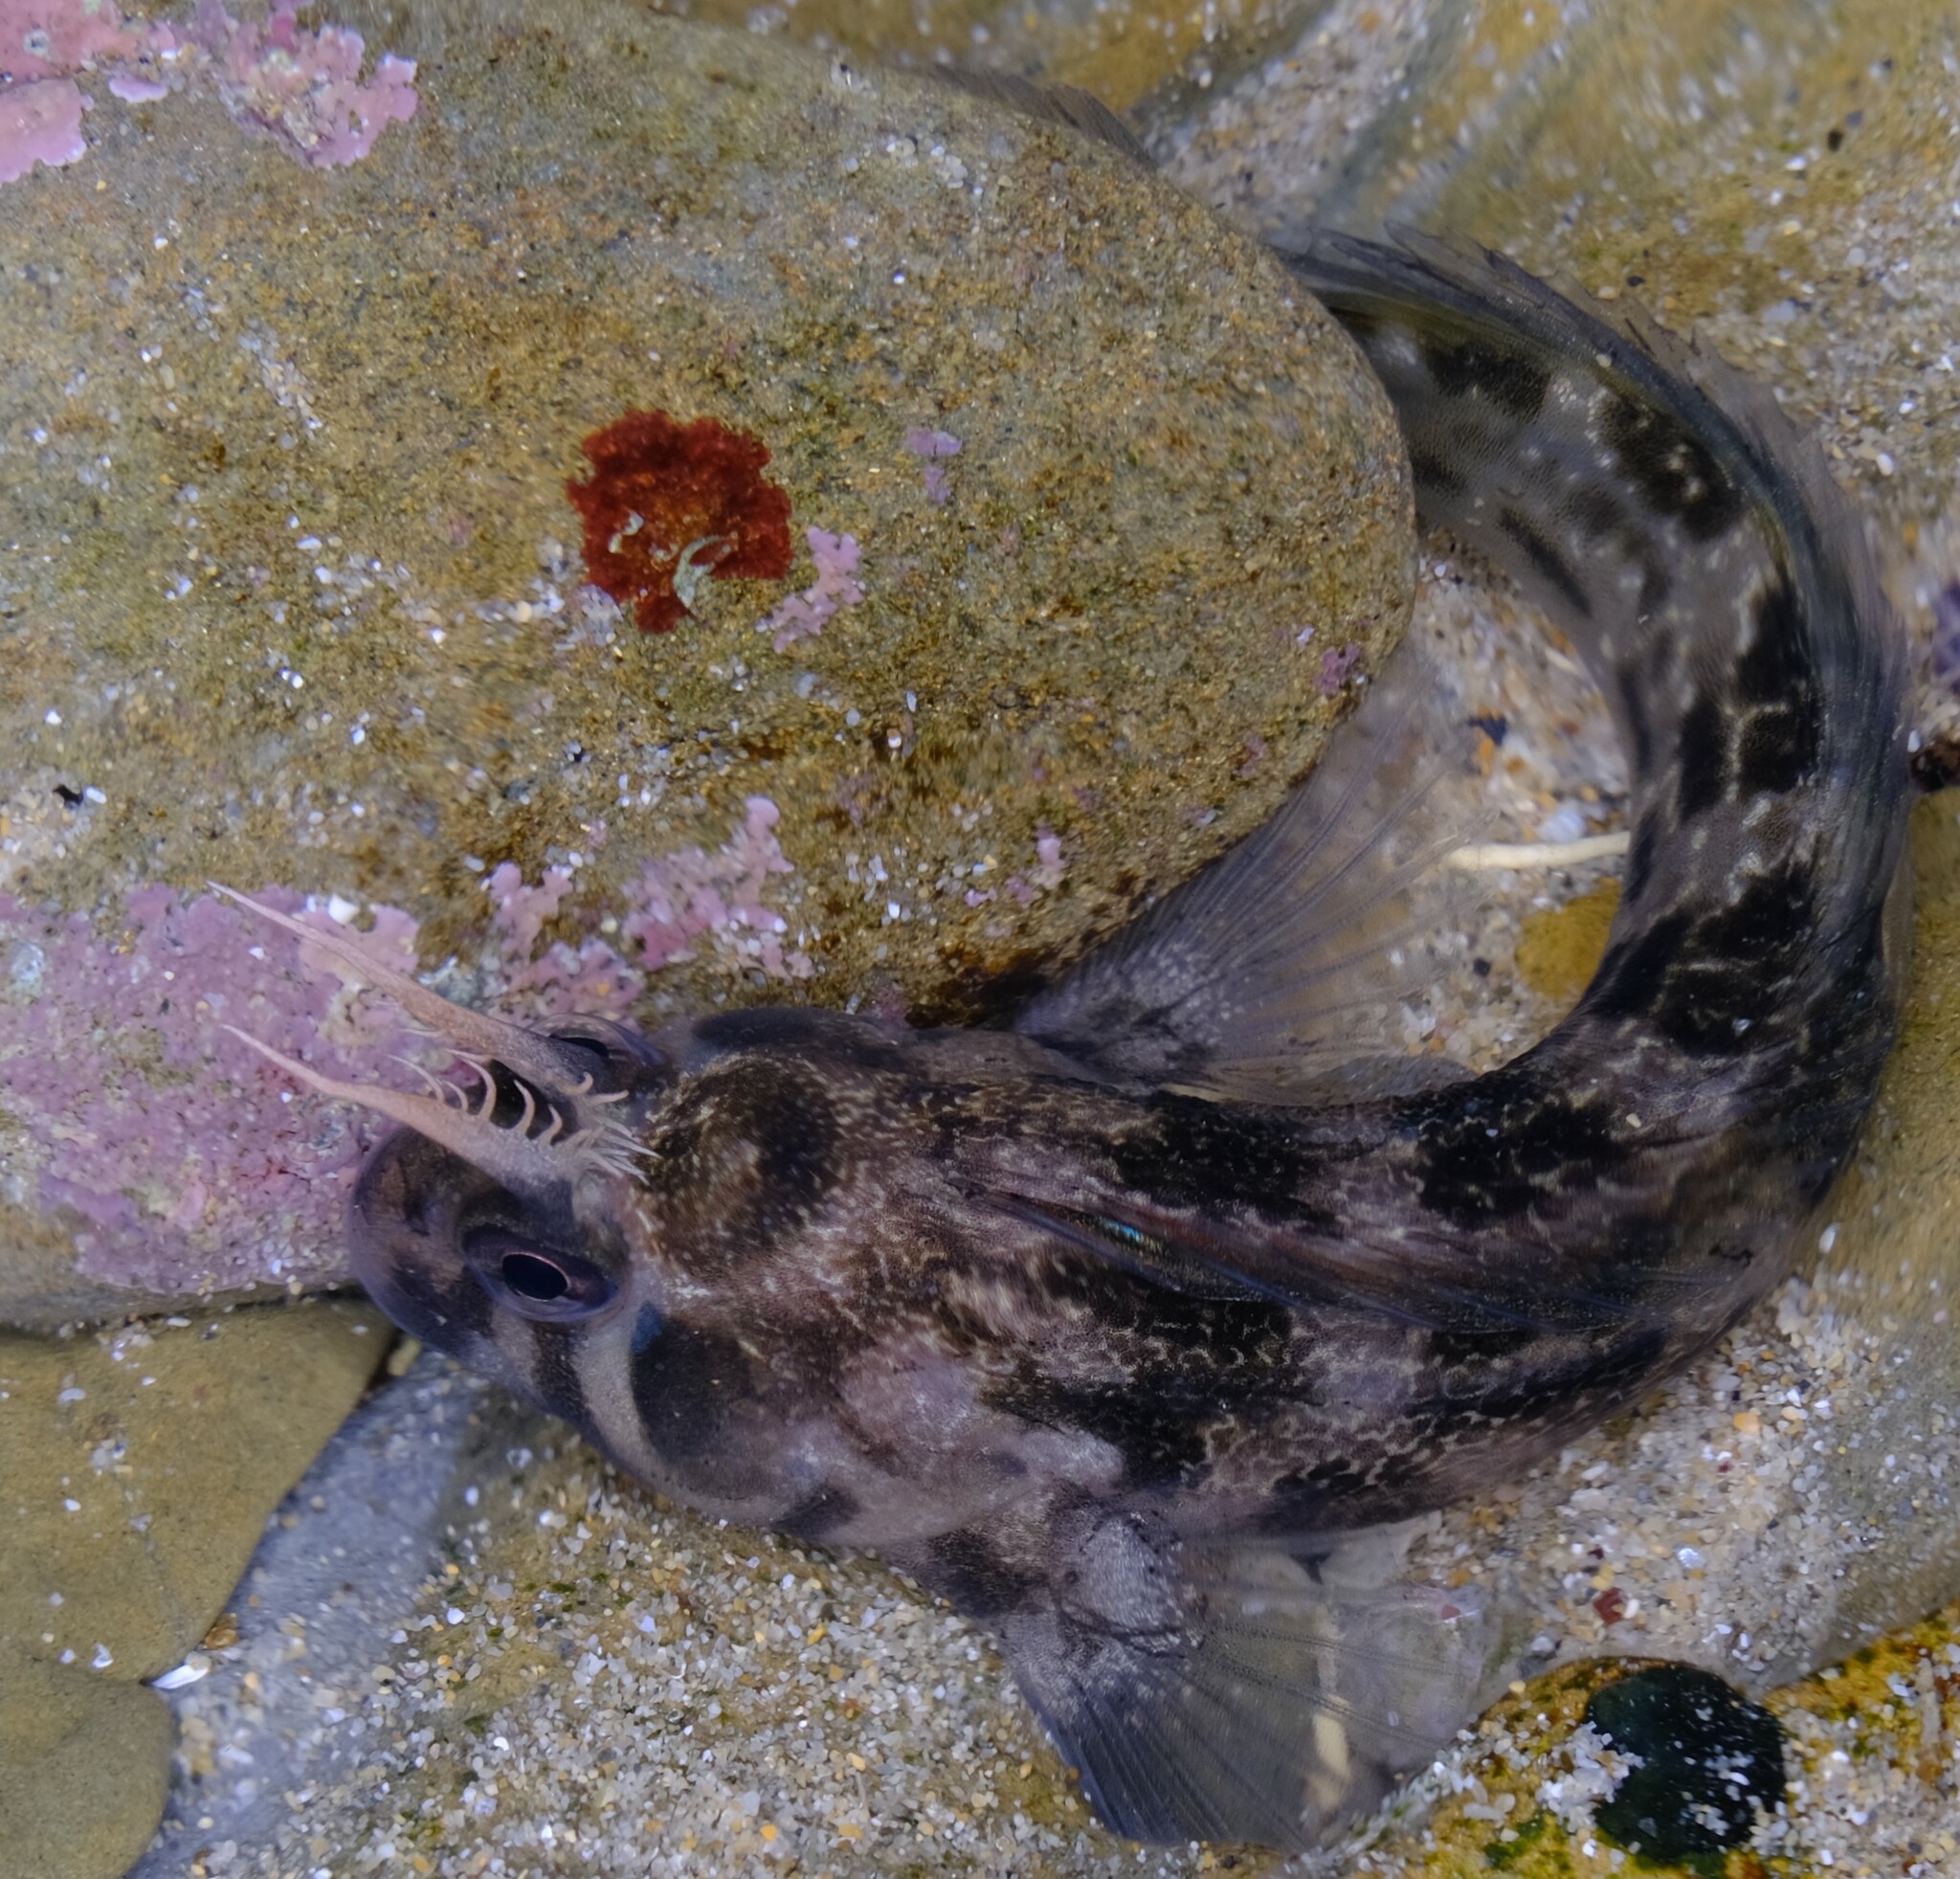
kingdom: Animalia
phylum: Chordata
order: Perciformes
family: Blenniidae
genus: Parablennius
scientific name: Parablennius tasmanianus
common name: Tasmanian blenny
